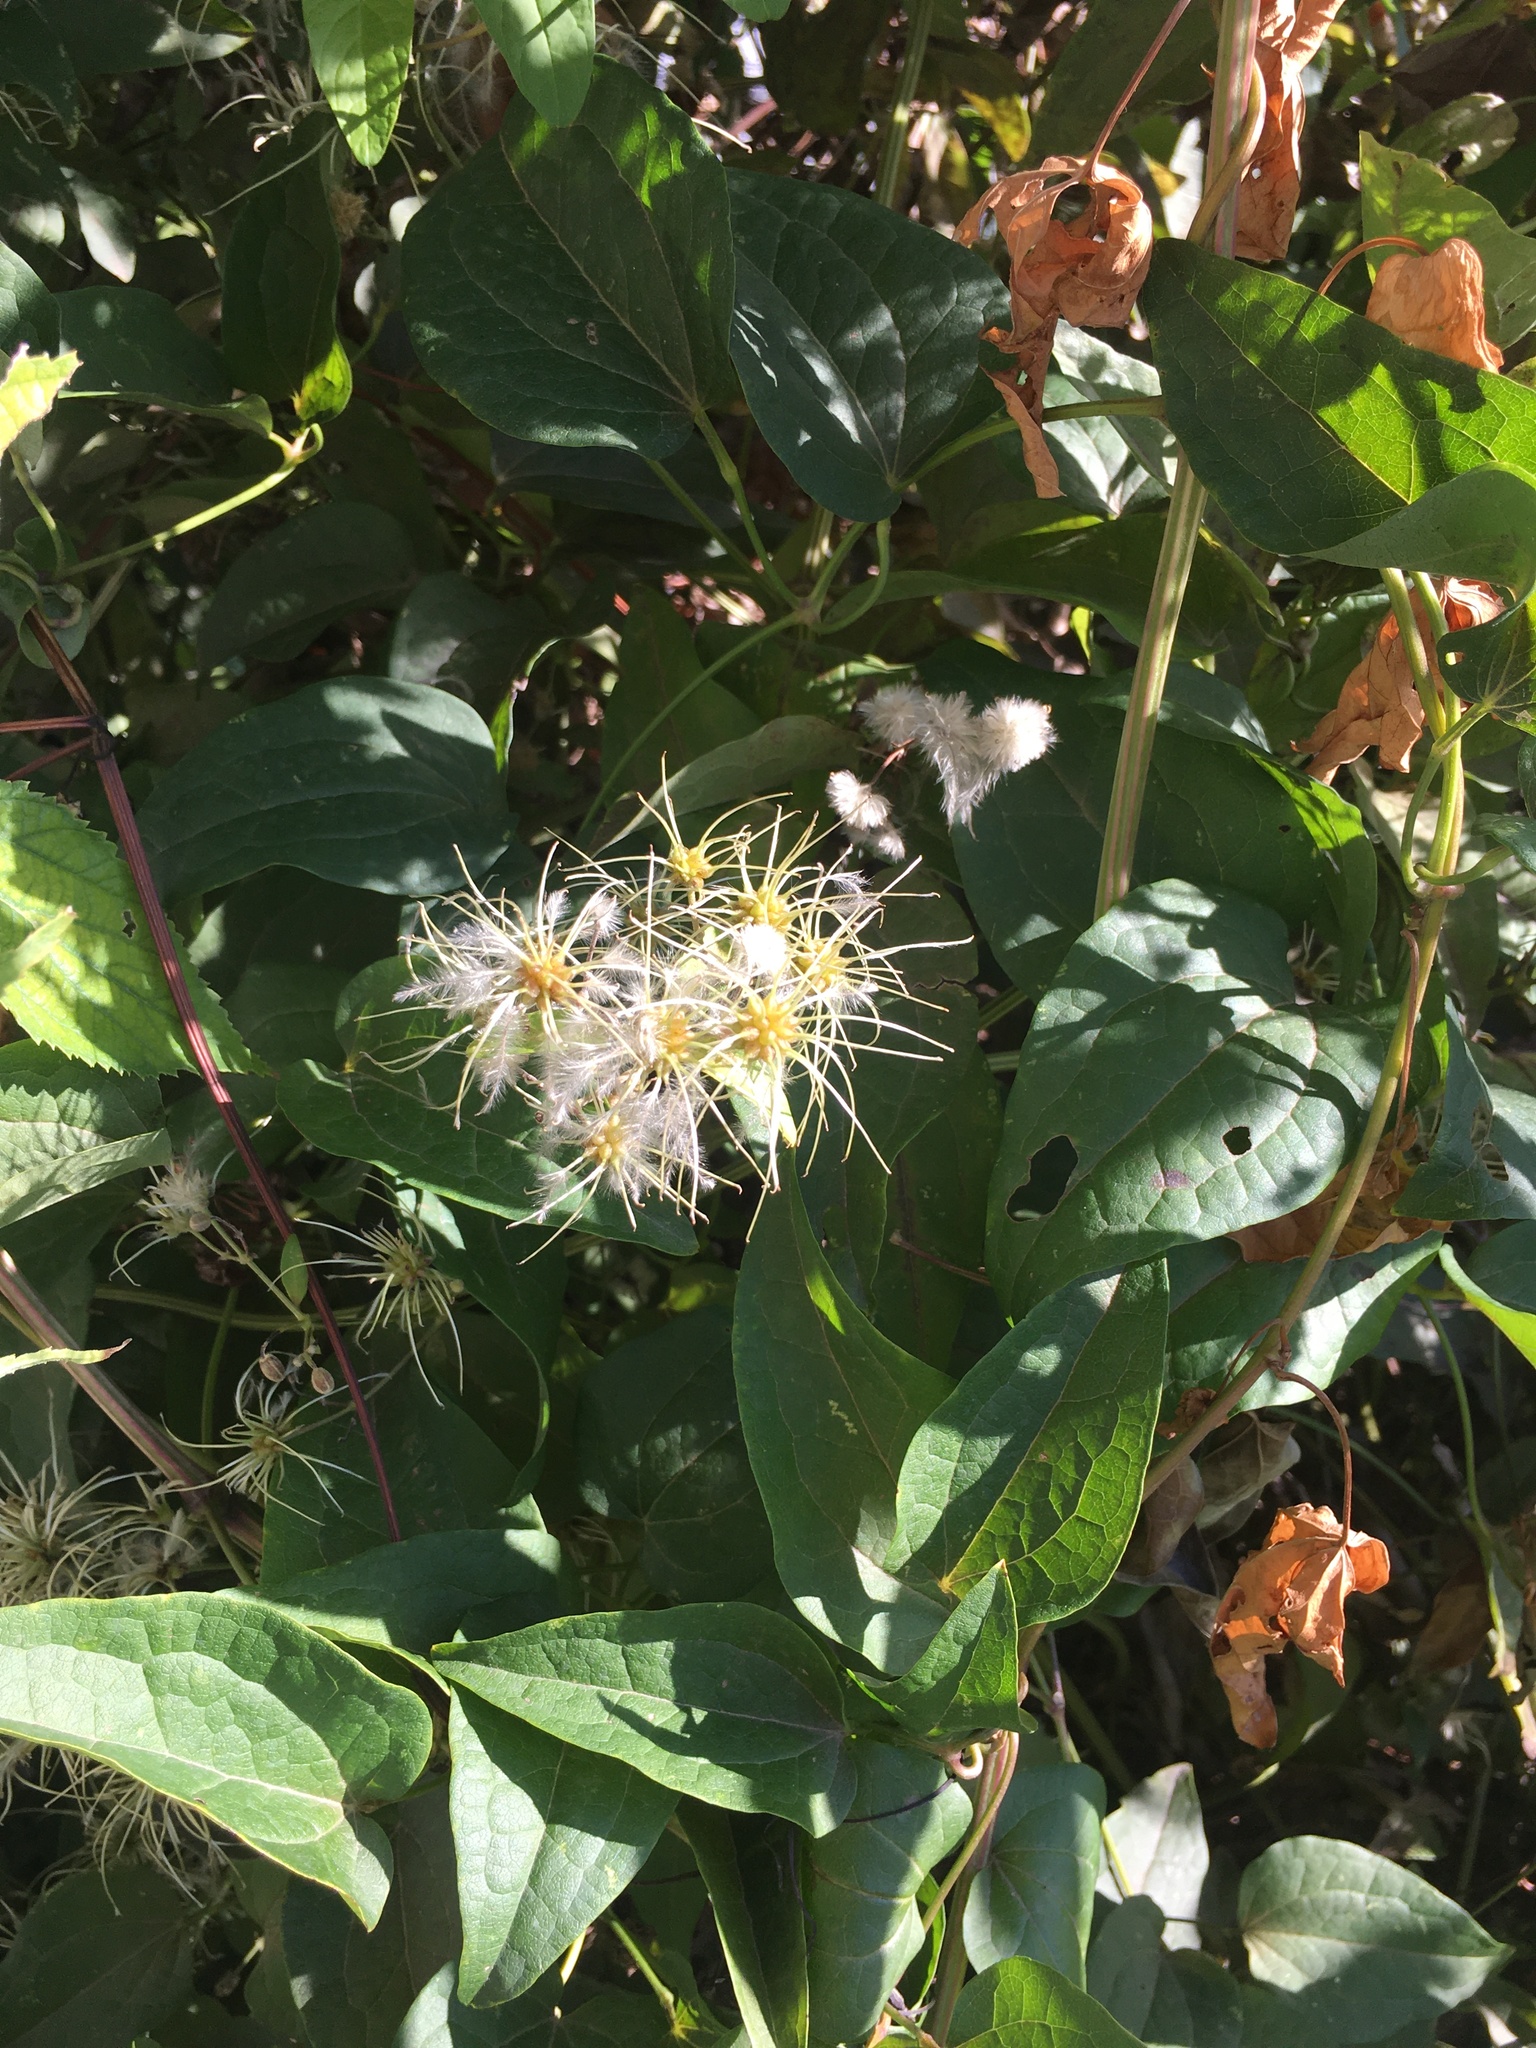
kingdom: Plantae
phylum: Tracheophyta
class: Magnoliopsida
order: Ranunculales
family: Ranunculaceae
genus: Clematis
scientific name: Clematis vitalba
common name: Evergreen clematis
